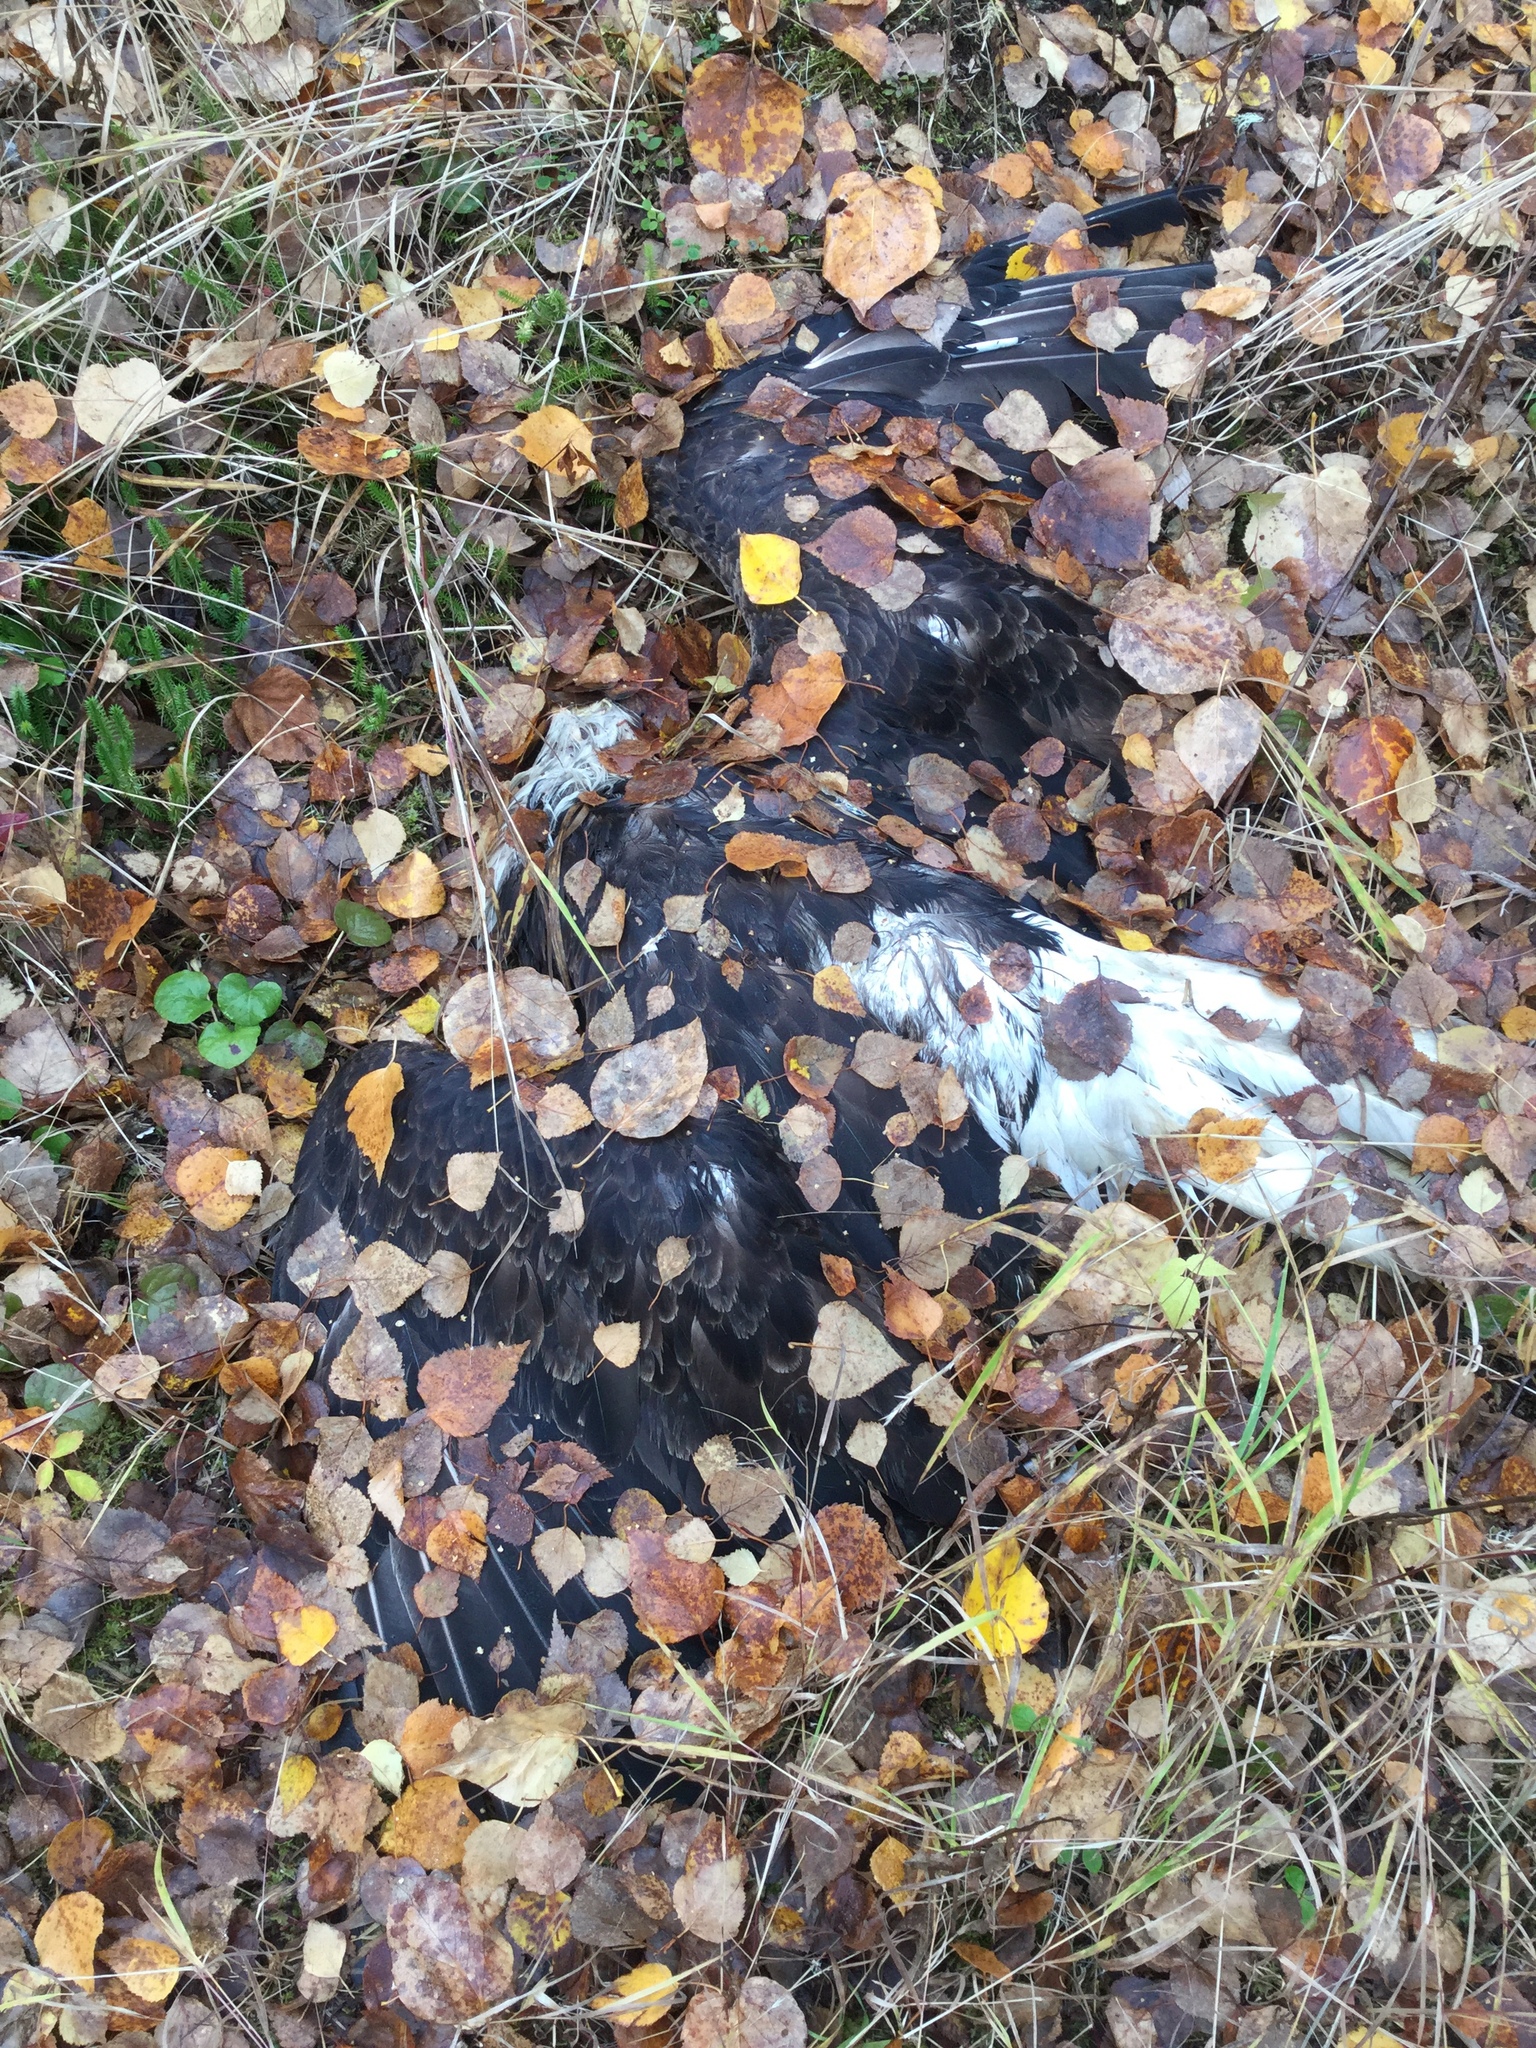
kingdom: Animalia
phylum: Chordata
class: Aves
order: Accipitriformes
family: Accipitridae
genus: Haliaeetus
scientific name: Haliaeetus leucocephalus
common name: Bald eagle
